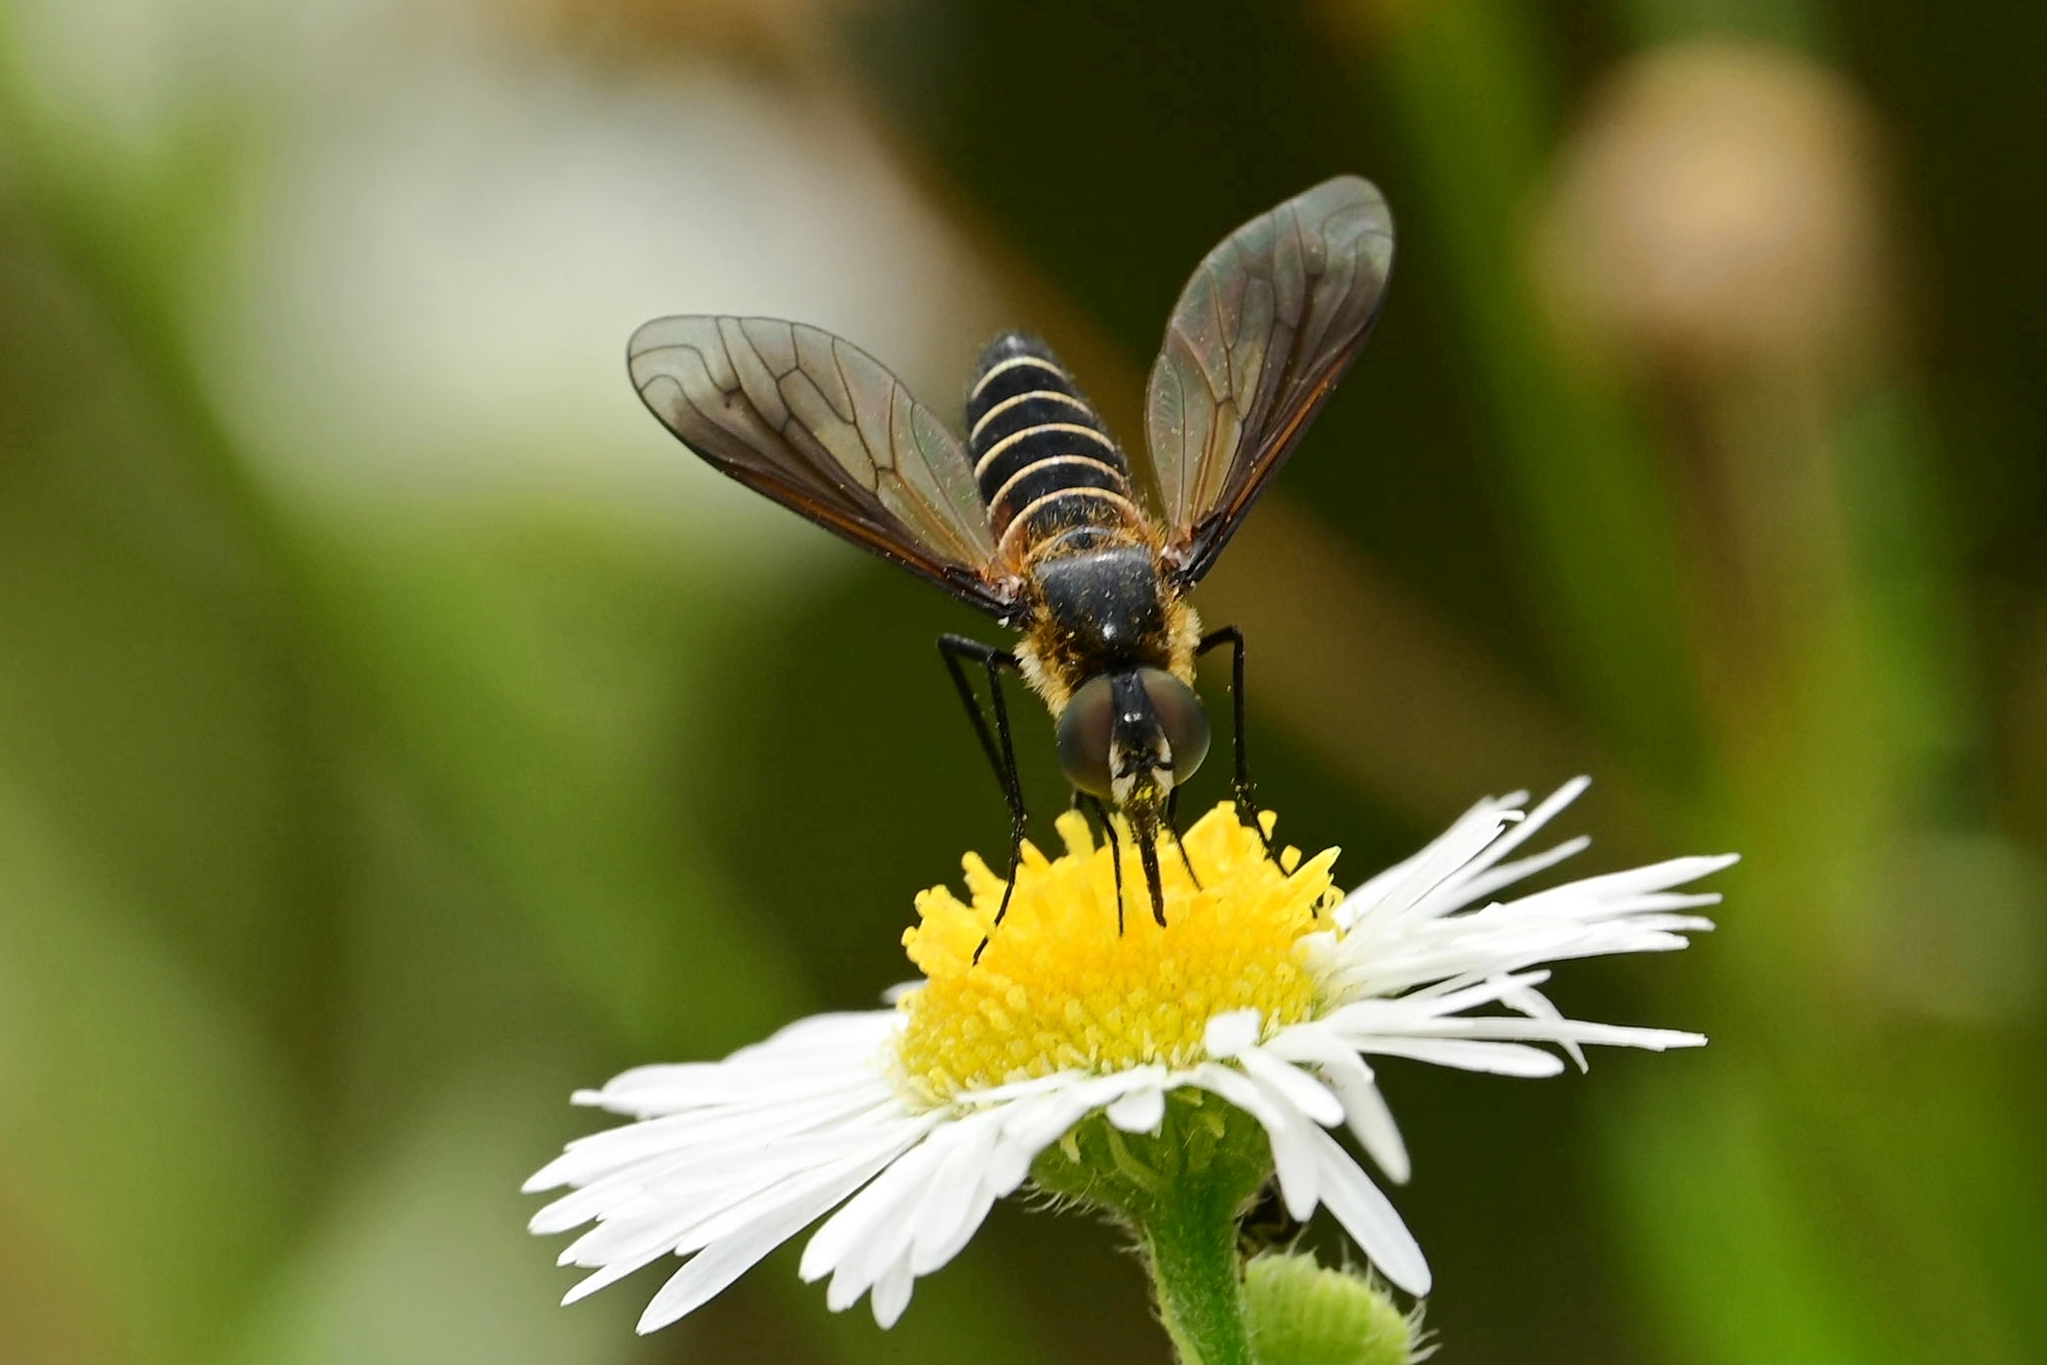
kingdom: Animalia
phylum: Arthropoda
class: Insecta
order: Diptera
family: Bombyliidae
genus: Lomatia
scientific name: Lomatia lateralis
